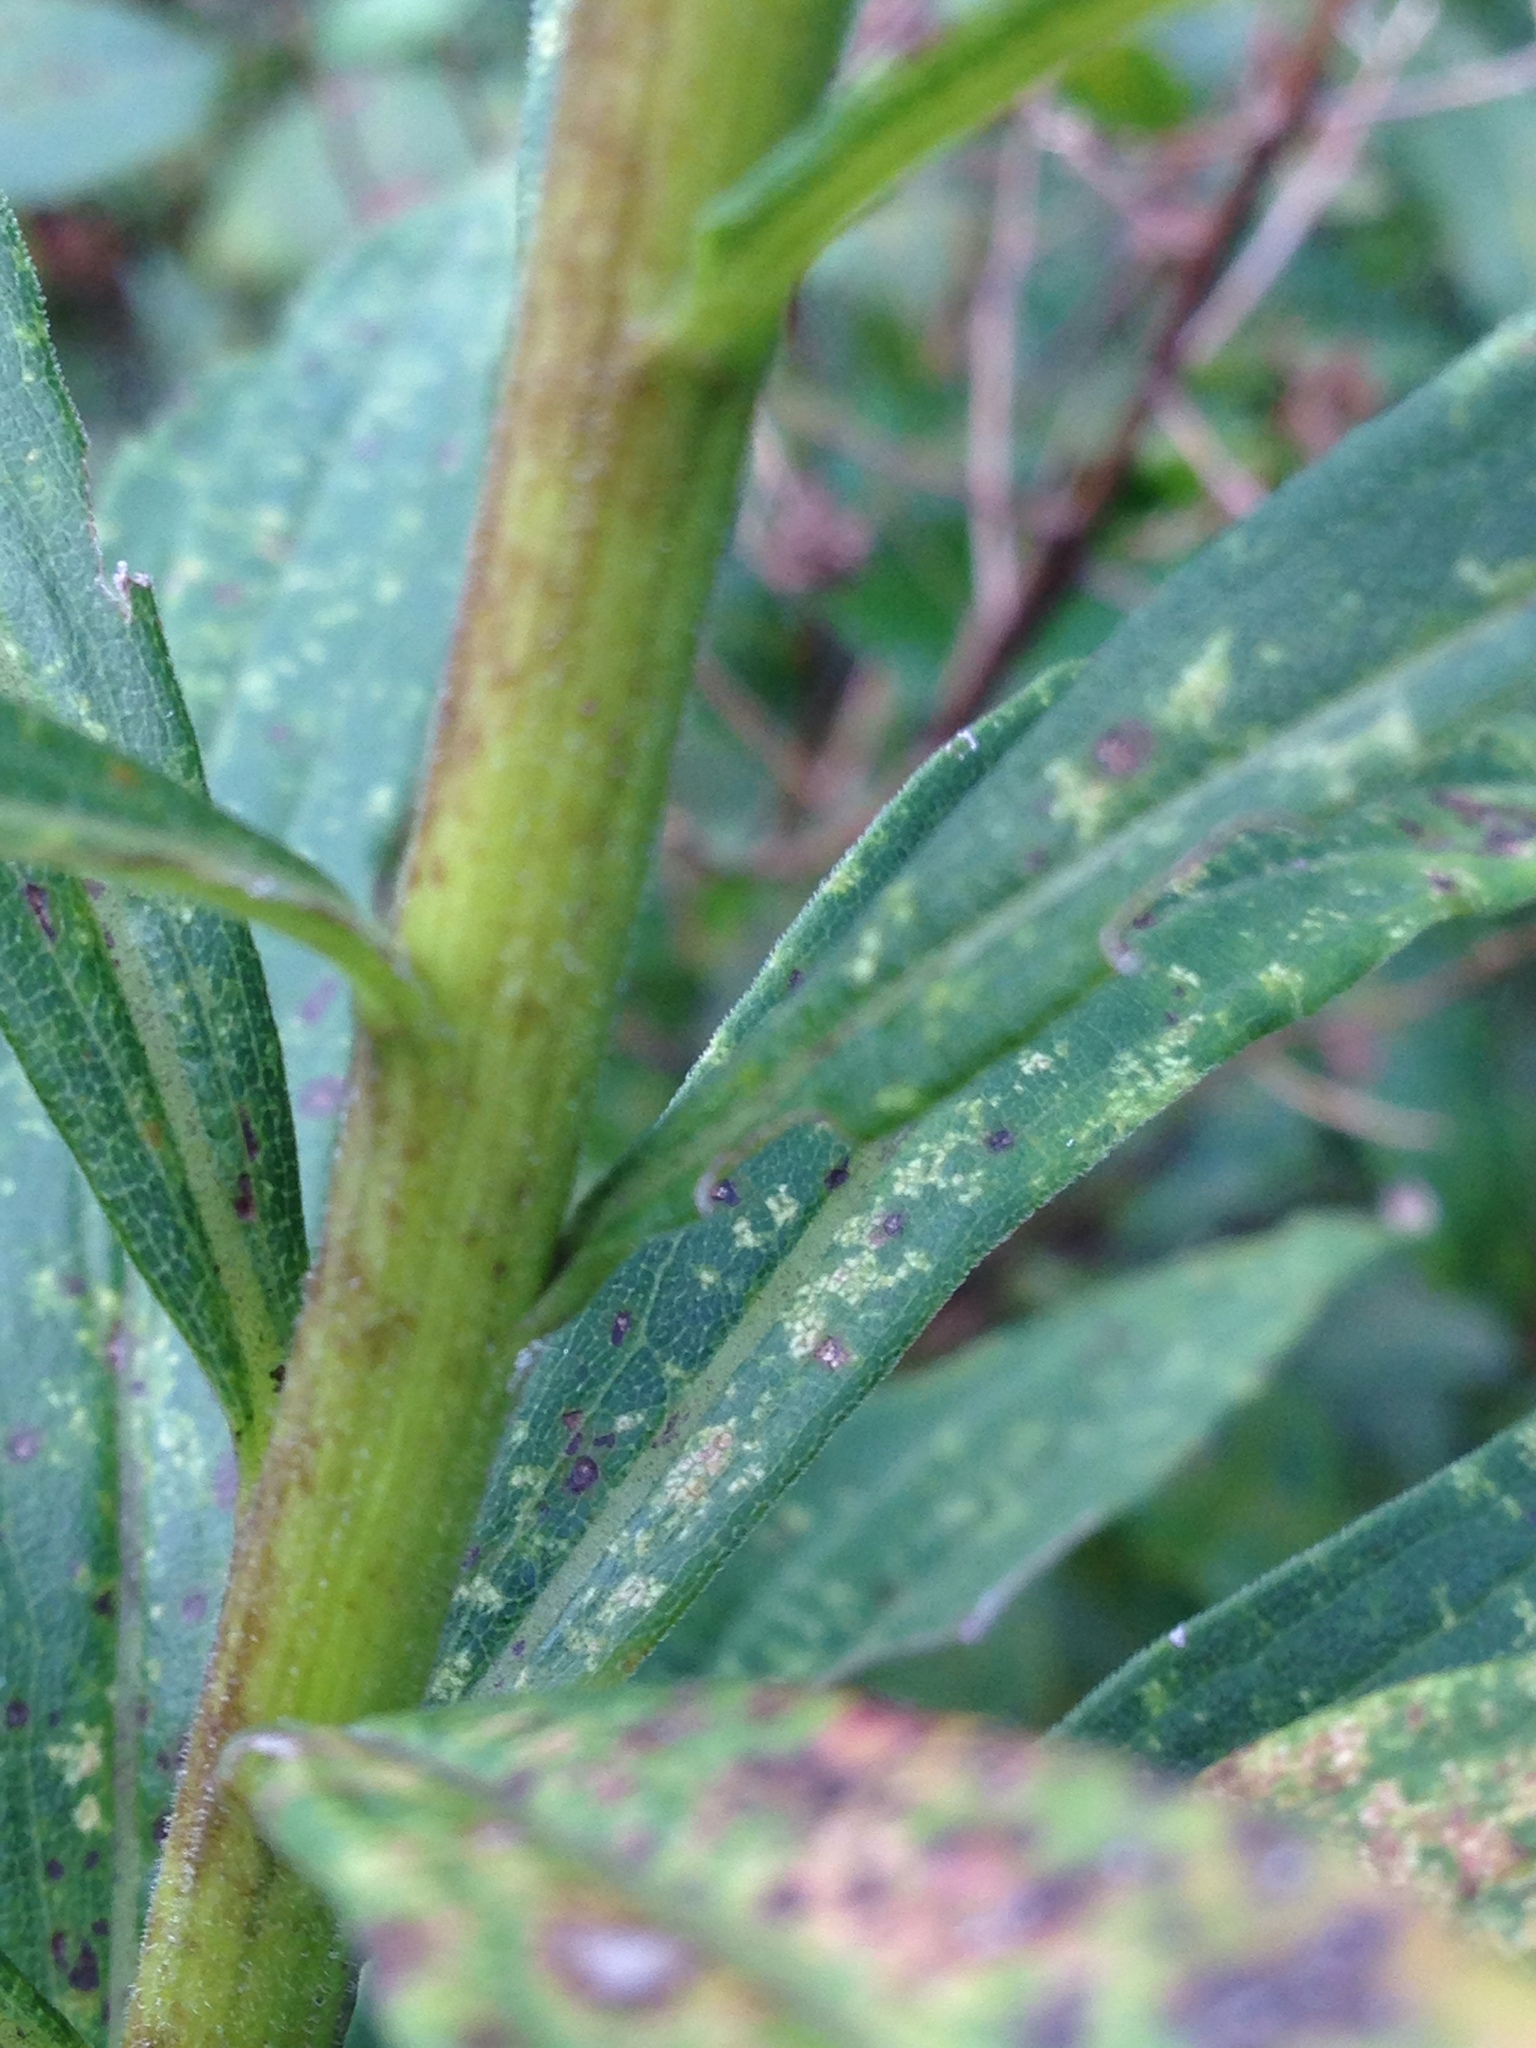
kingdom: Plantae
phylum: Tracheophyta
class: Magnoliopsida
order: Asterales
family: Asteraceae
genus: Solidago
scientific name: Solidago gigantea
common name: Giant goldenrod
